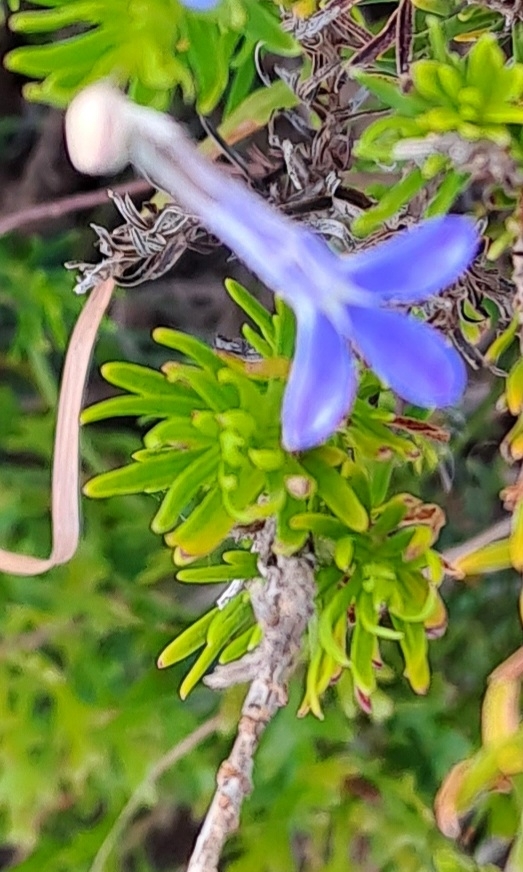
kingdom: Plantae
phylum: Tracheophyta
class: Magnoliopsida
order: Asterales
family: Campanulaceae
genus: Lobelia
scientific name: Lobelia pinifolia
